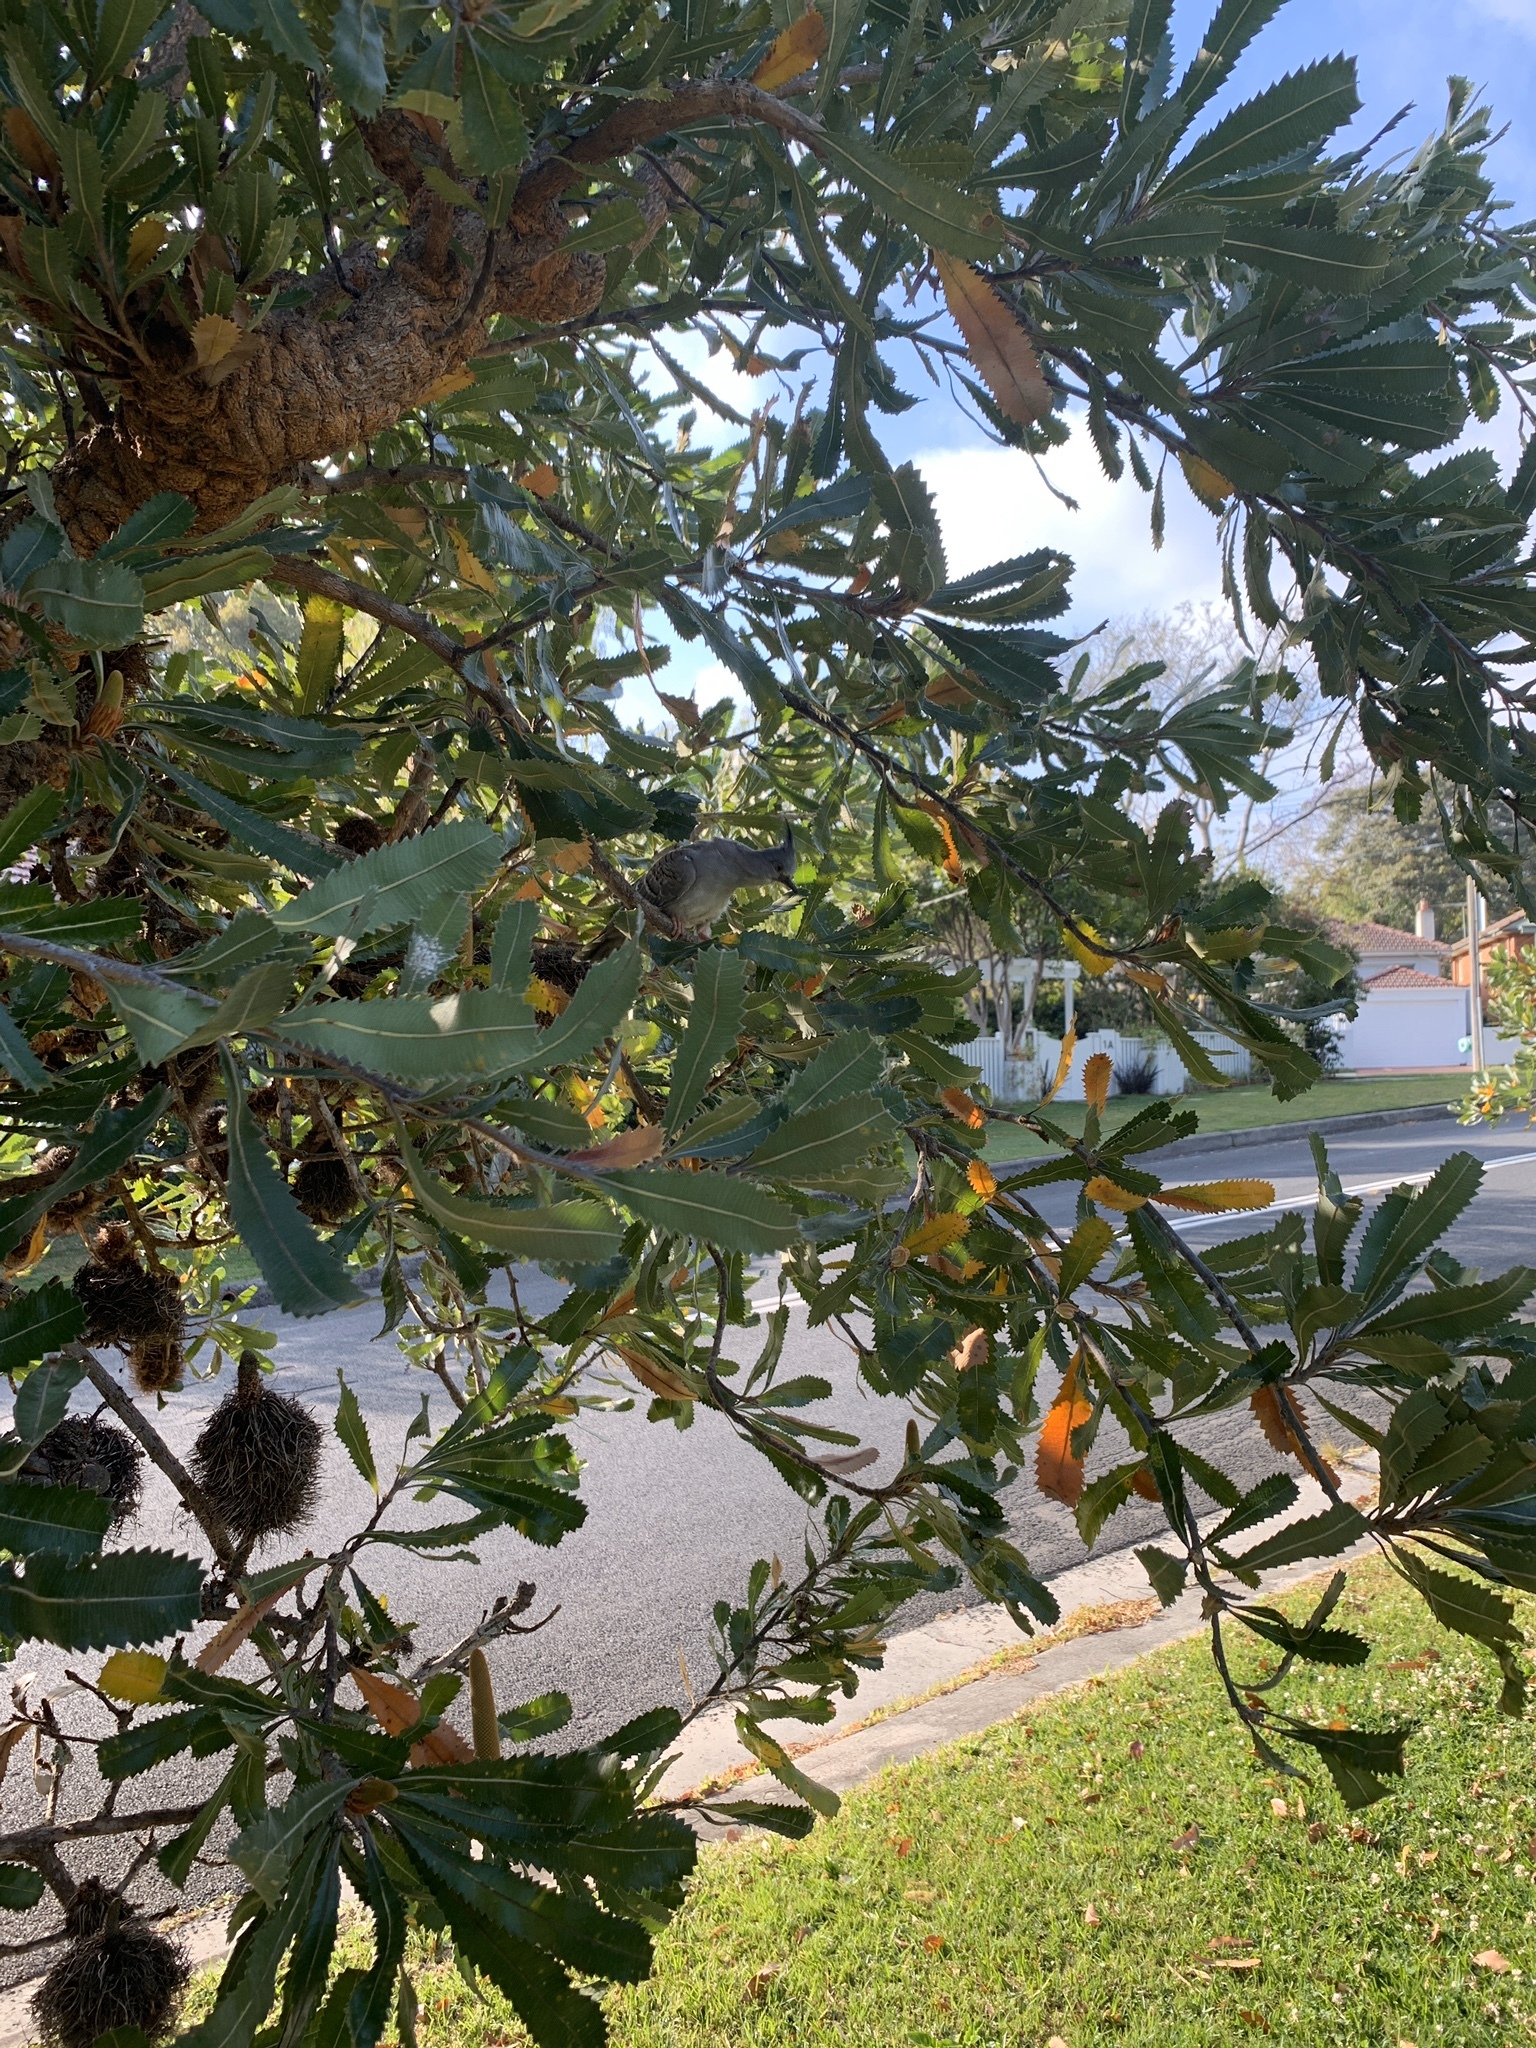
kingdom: Animalia
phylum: Chordata
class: Aves
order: Columbiformes
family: Columbidae
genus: Ocyphaps
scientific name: Ocyphaps lophotes
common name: Crested pigeon
